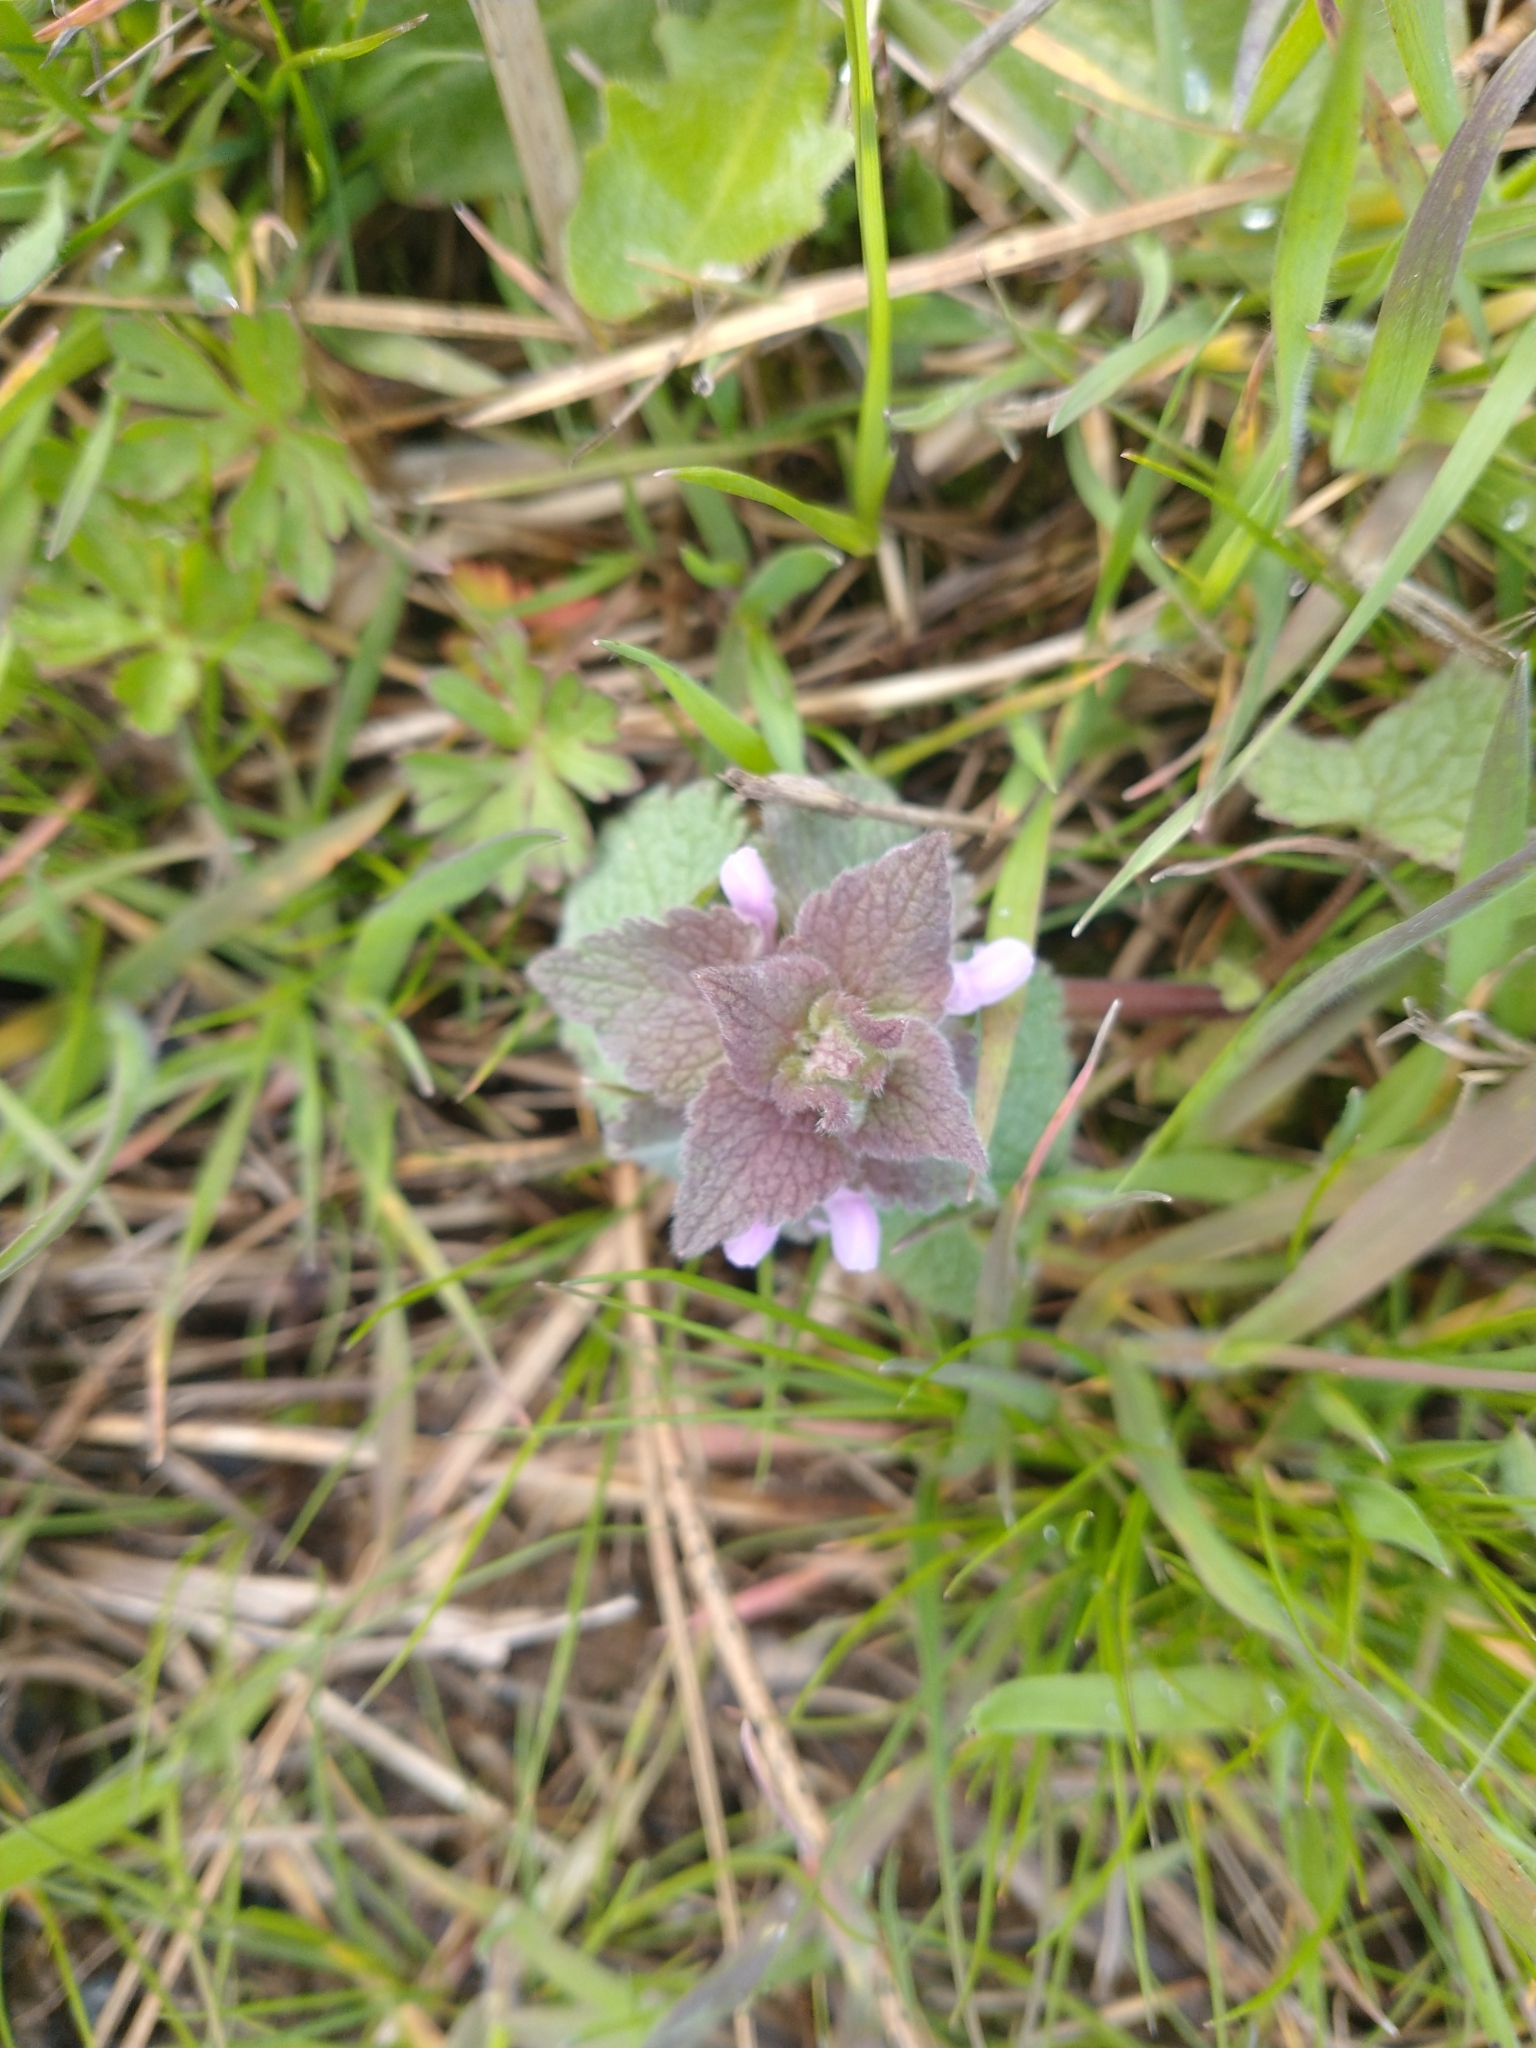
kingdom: Plantae
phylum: Tracheophyta
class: Magnoliopsida
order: Lamiales
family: Lamiaceae
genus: Lamium
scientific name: Lamium purpureum
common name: Red dead-nettle
